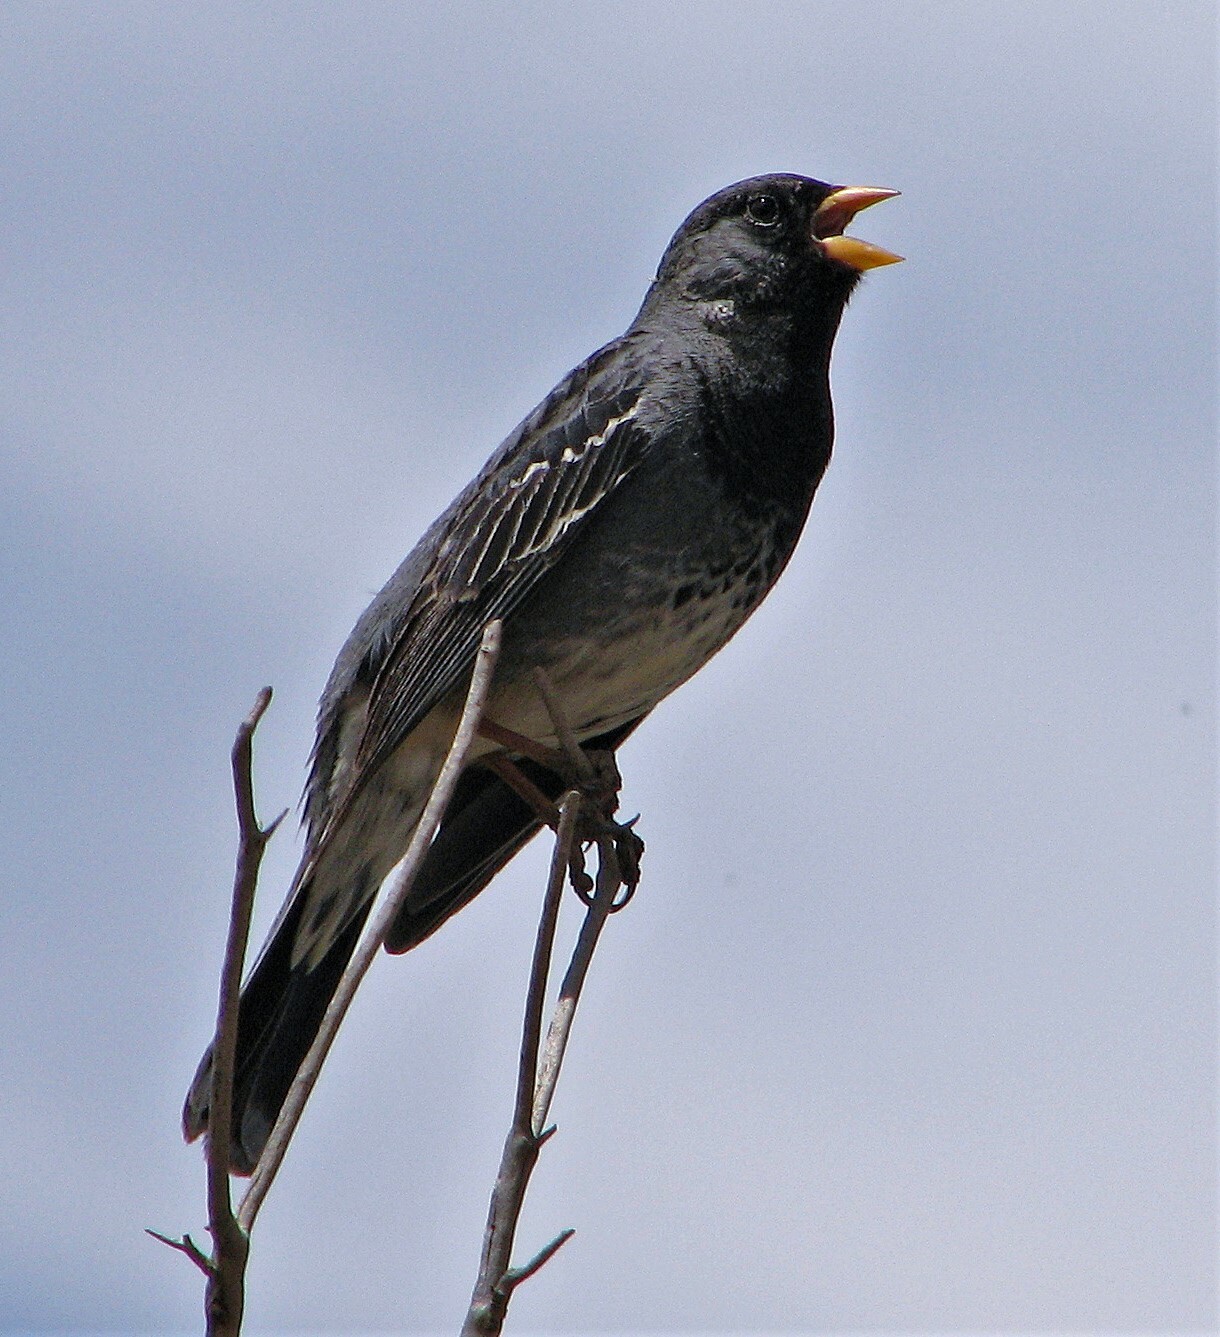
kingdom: Animalia
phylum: Chordata
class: Aves
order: Passeriformes
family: Thraupidae
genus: Rhopospina
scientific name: Rhopospina fruticeti
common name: Mourning sierra finch
